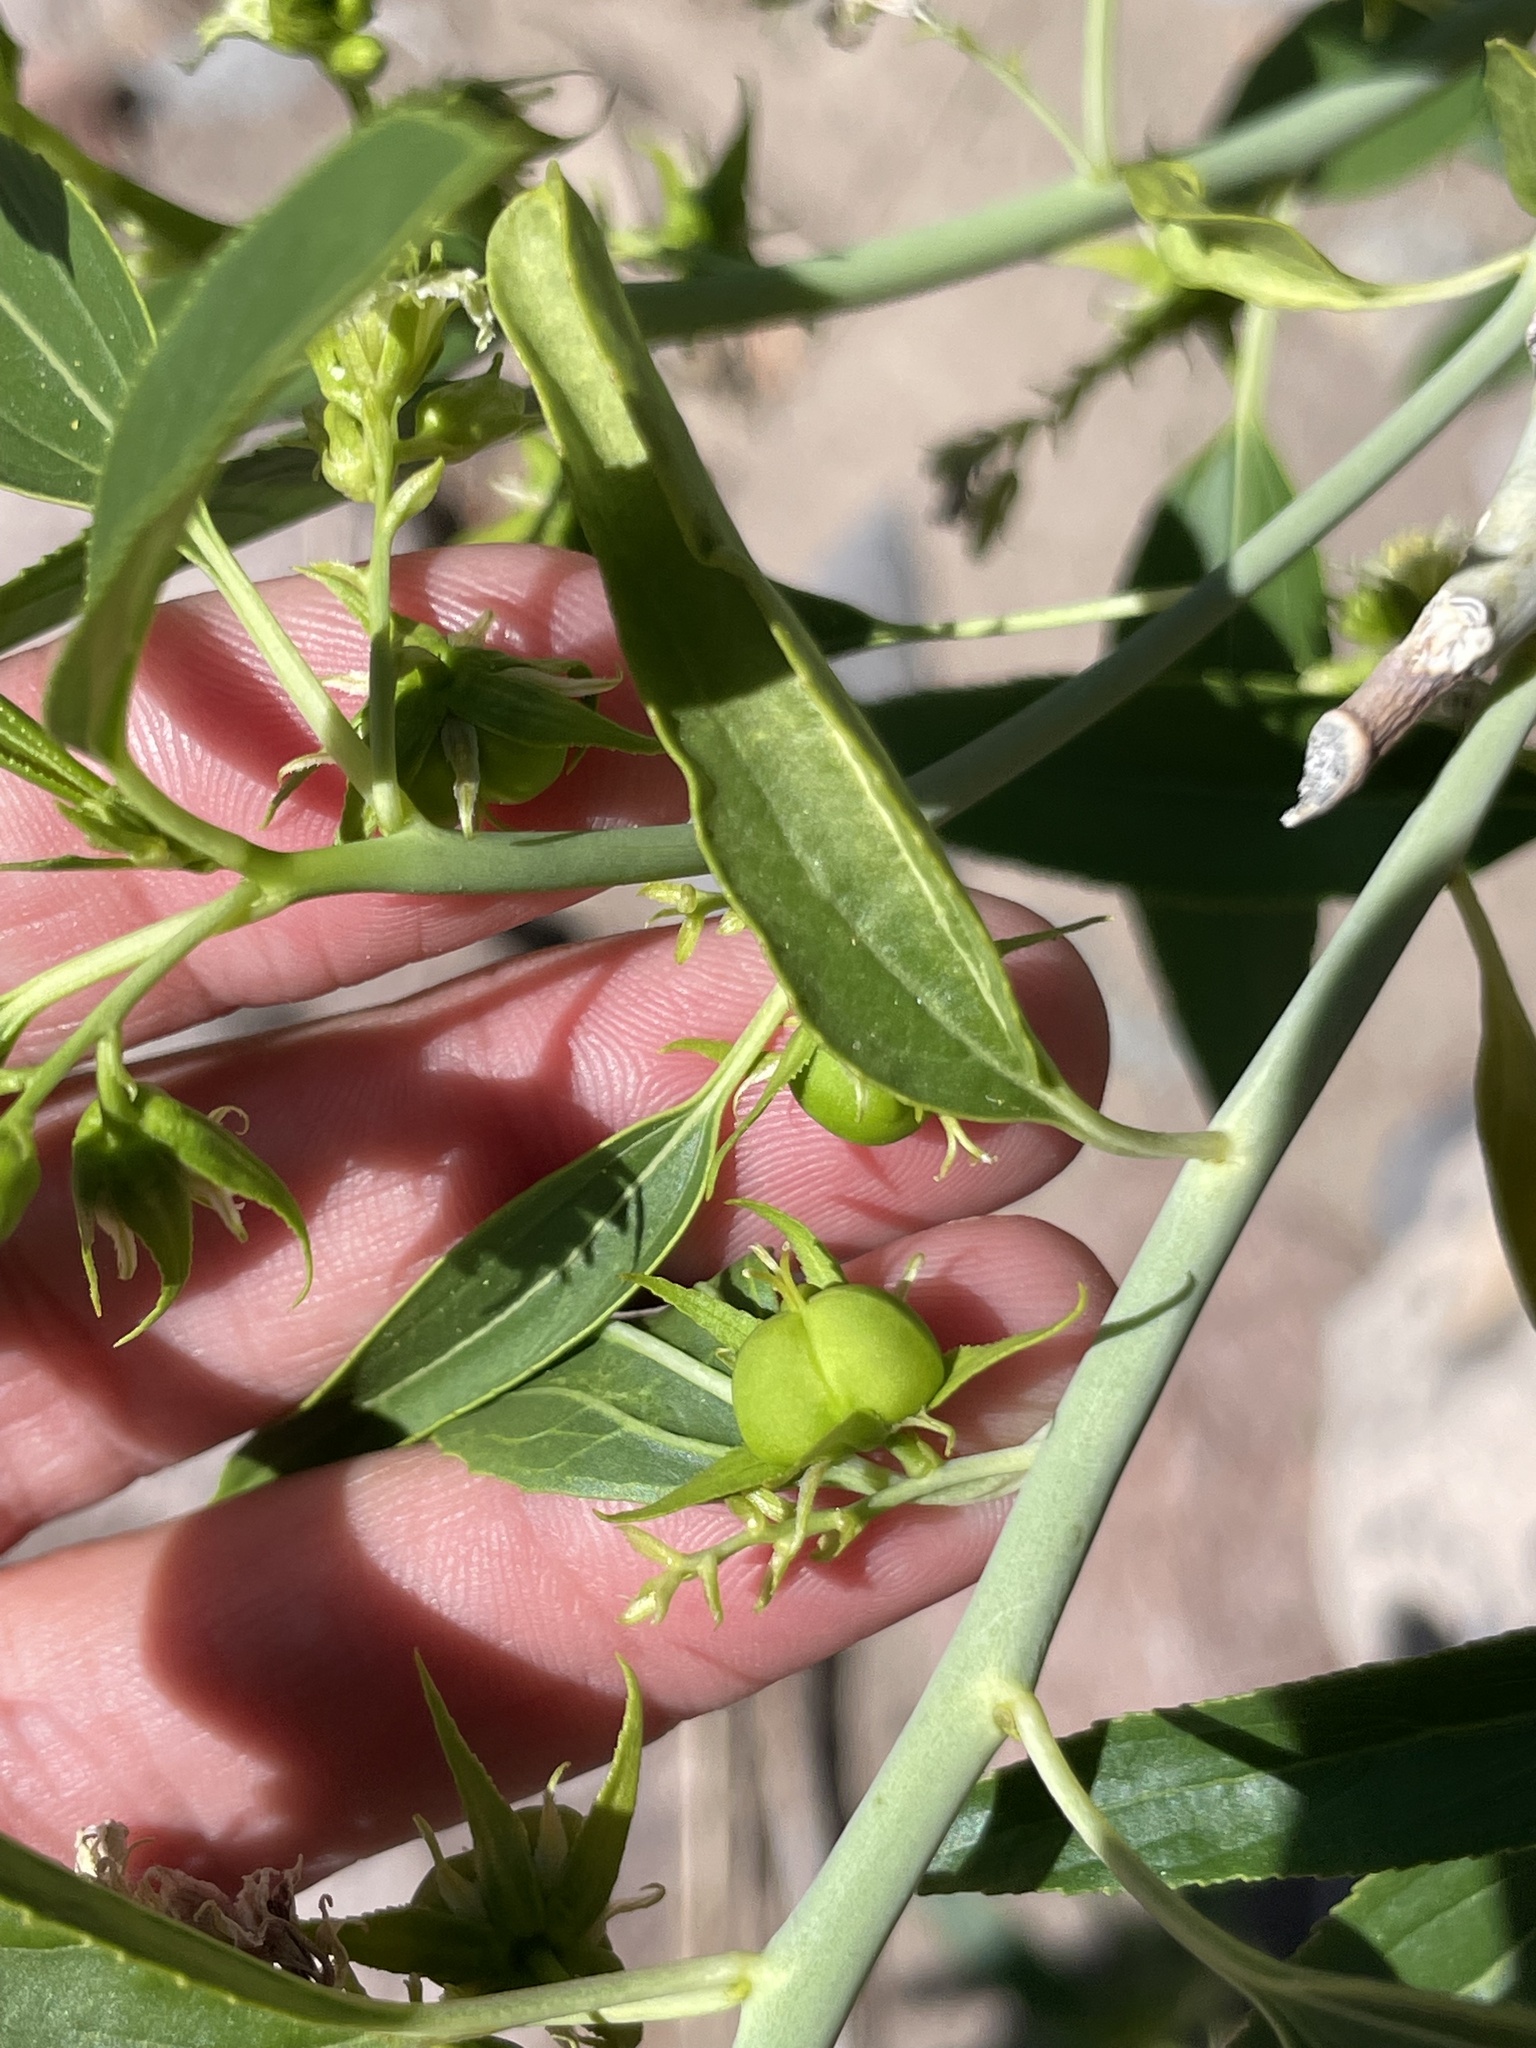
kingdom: Plantae
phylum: Tracheophyta
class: Magnoliopsida
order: Malpighiales
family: Euphorbiaceae
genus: Ditaxis
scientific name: Ditaxis brandegeei
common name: Sonoran silverbush
